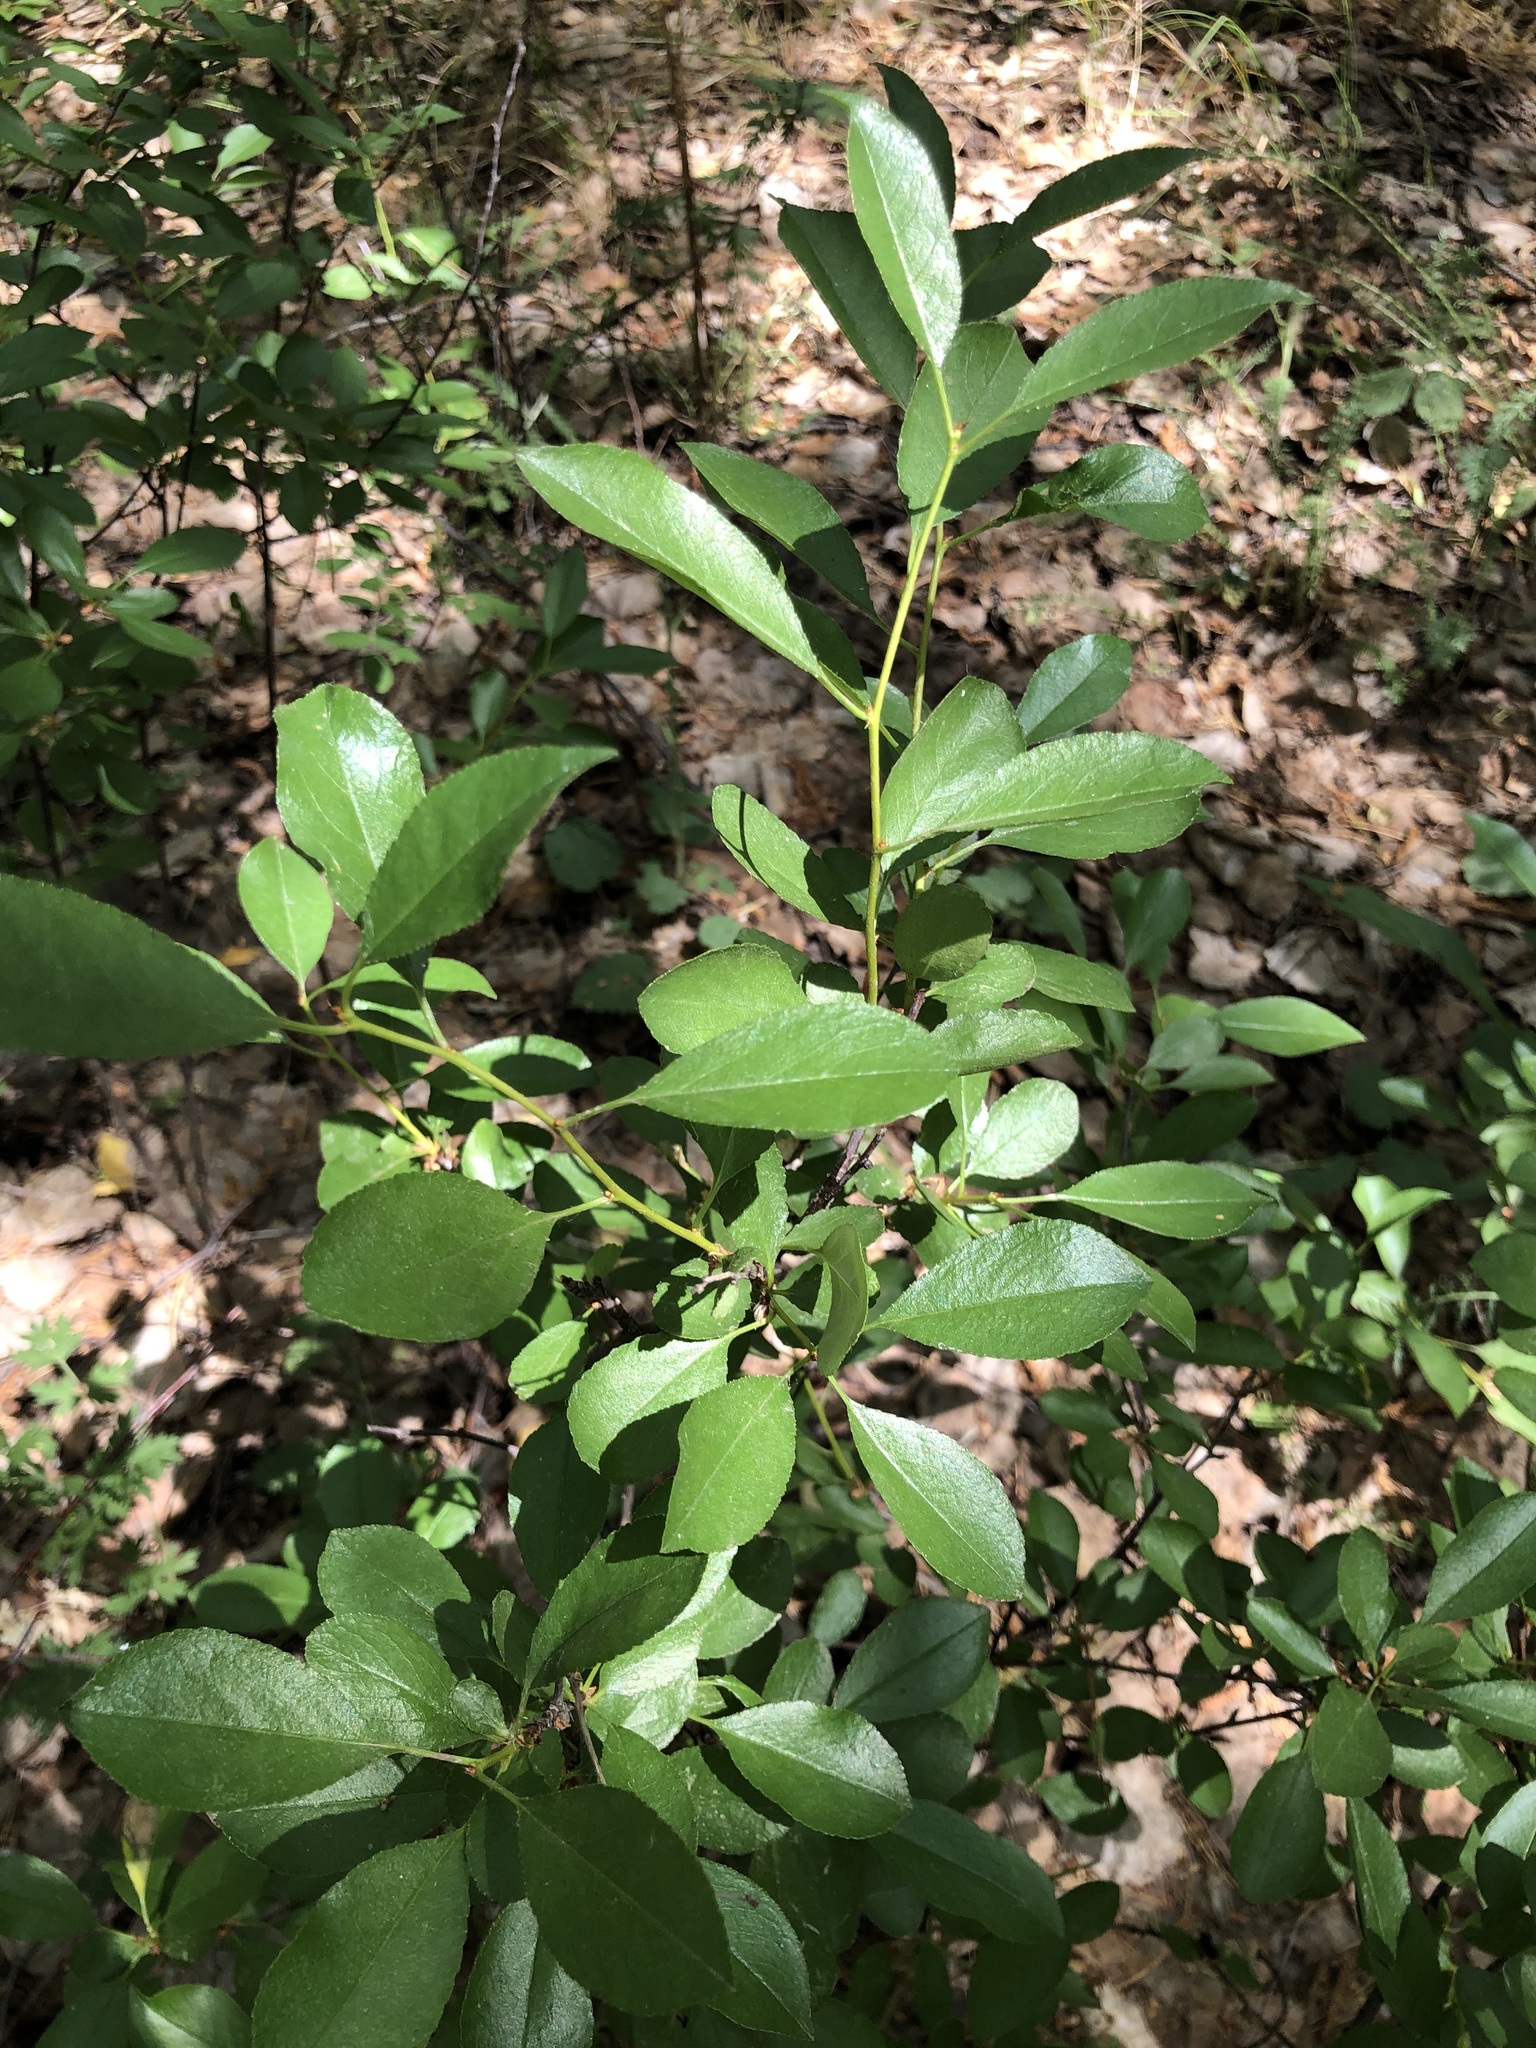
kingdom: Plantae
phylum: Tracheophyta
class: Magnoliopsida
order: Rosales
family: Rosaceae
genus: Prunus
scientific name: Prunus fruticosa
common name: European dwarf cherry
